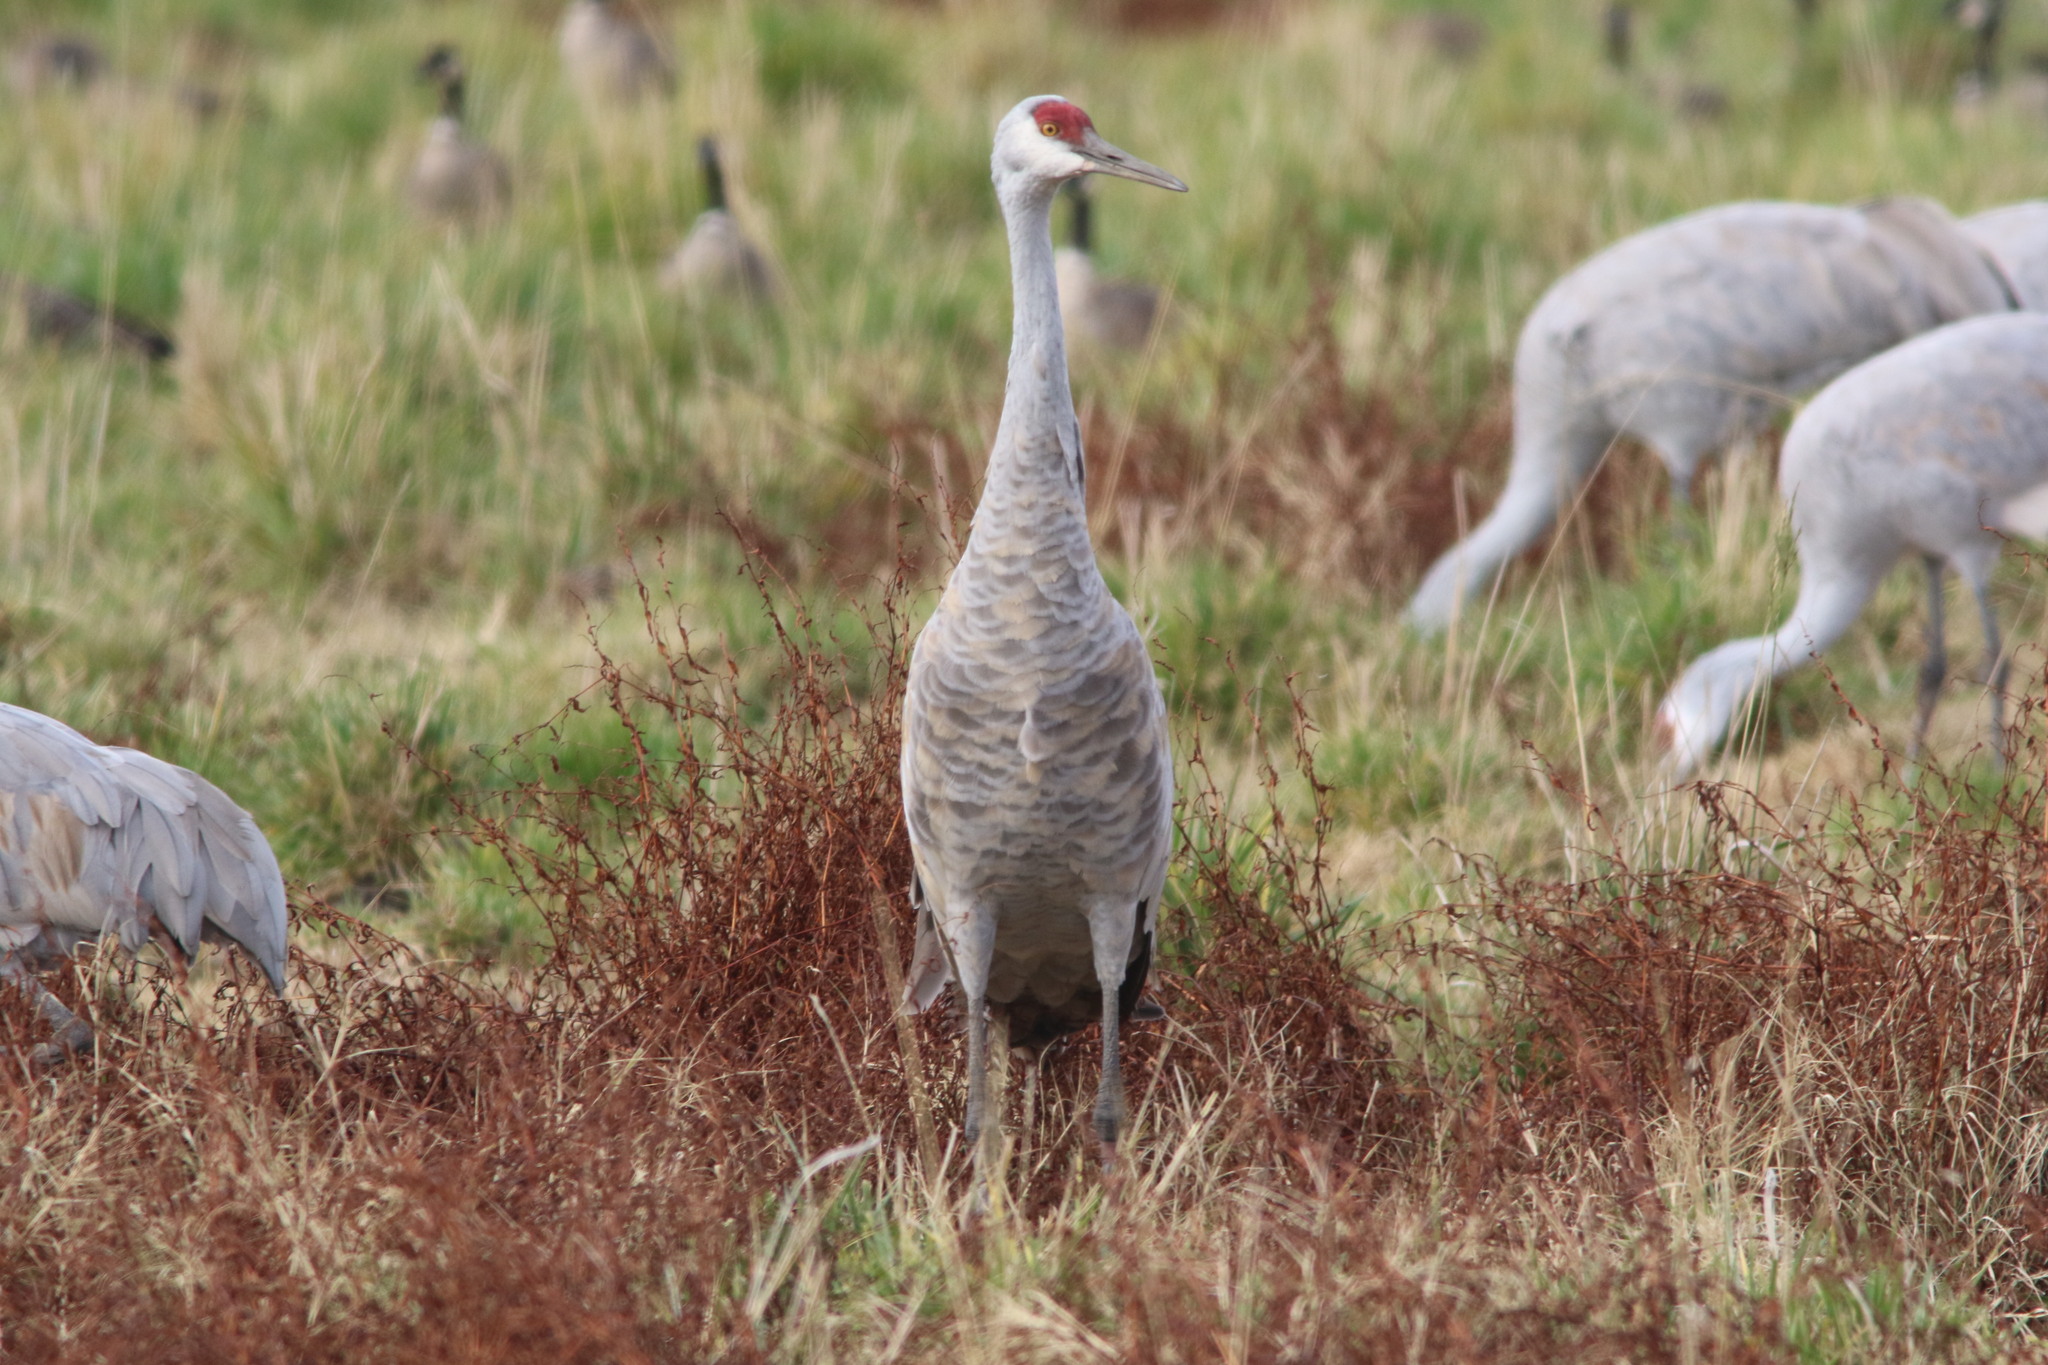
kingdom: Animalia
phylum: Chordata
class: Aves
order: Gruiformes
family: Gruidae
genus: Grus
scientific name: Grus canadensis
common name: Sandhill crane
